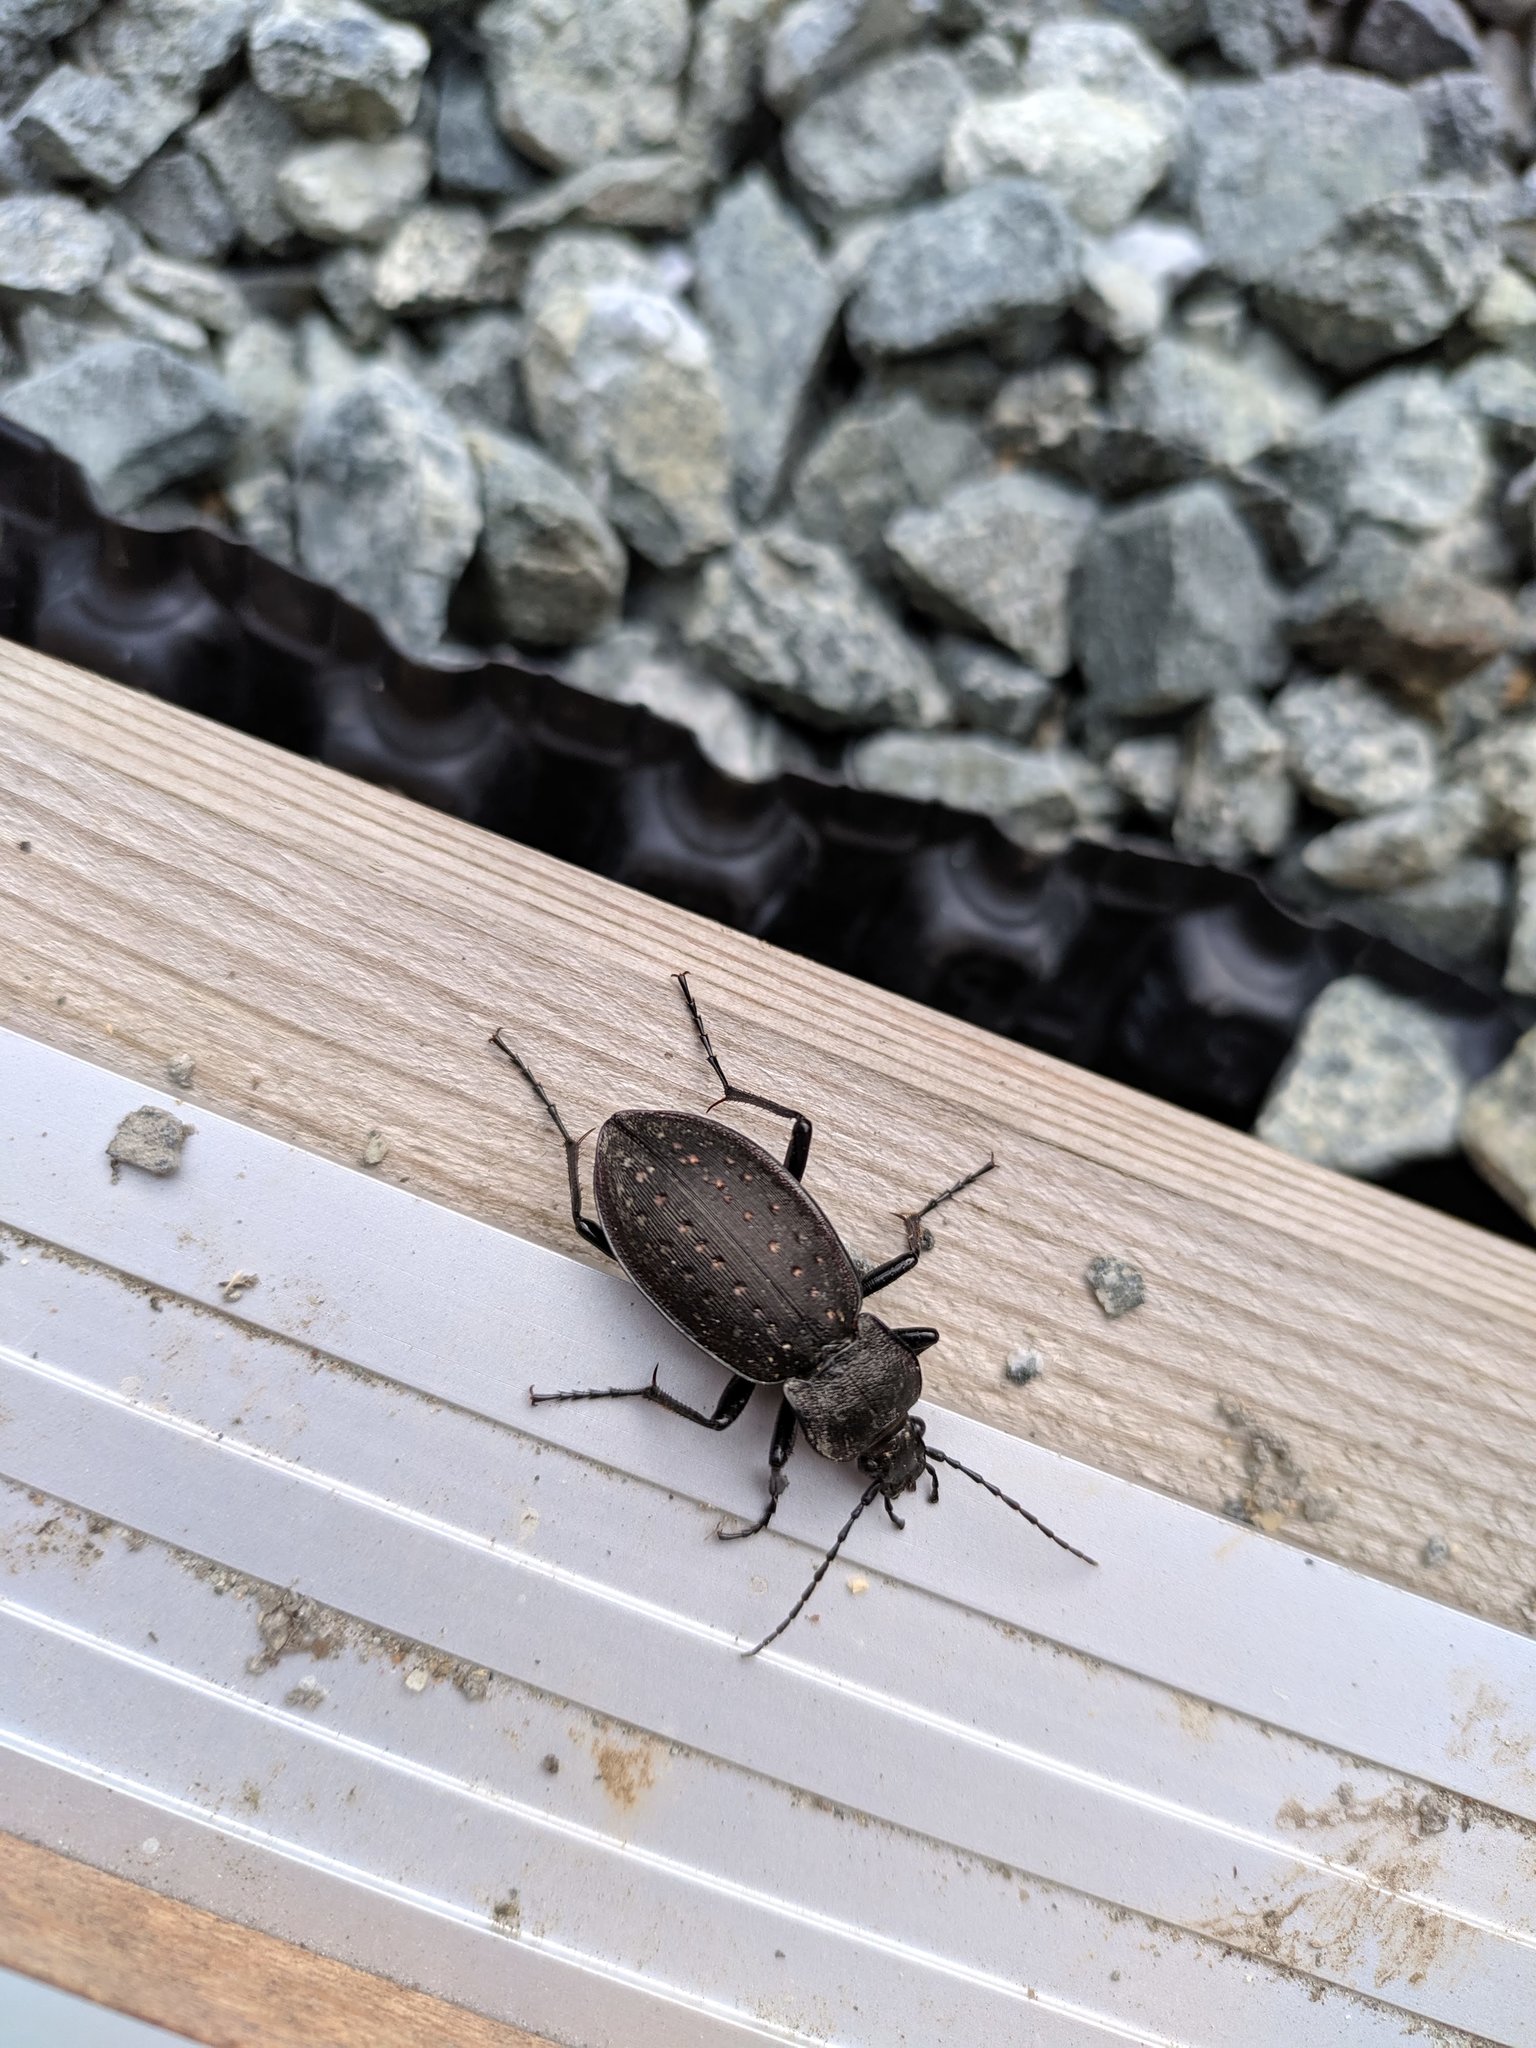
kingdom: Animalia
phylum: Arthropoda
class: Insecta
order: Coleoptera
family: Carabidae
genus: Carabus
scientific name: Carabus hortensis
